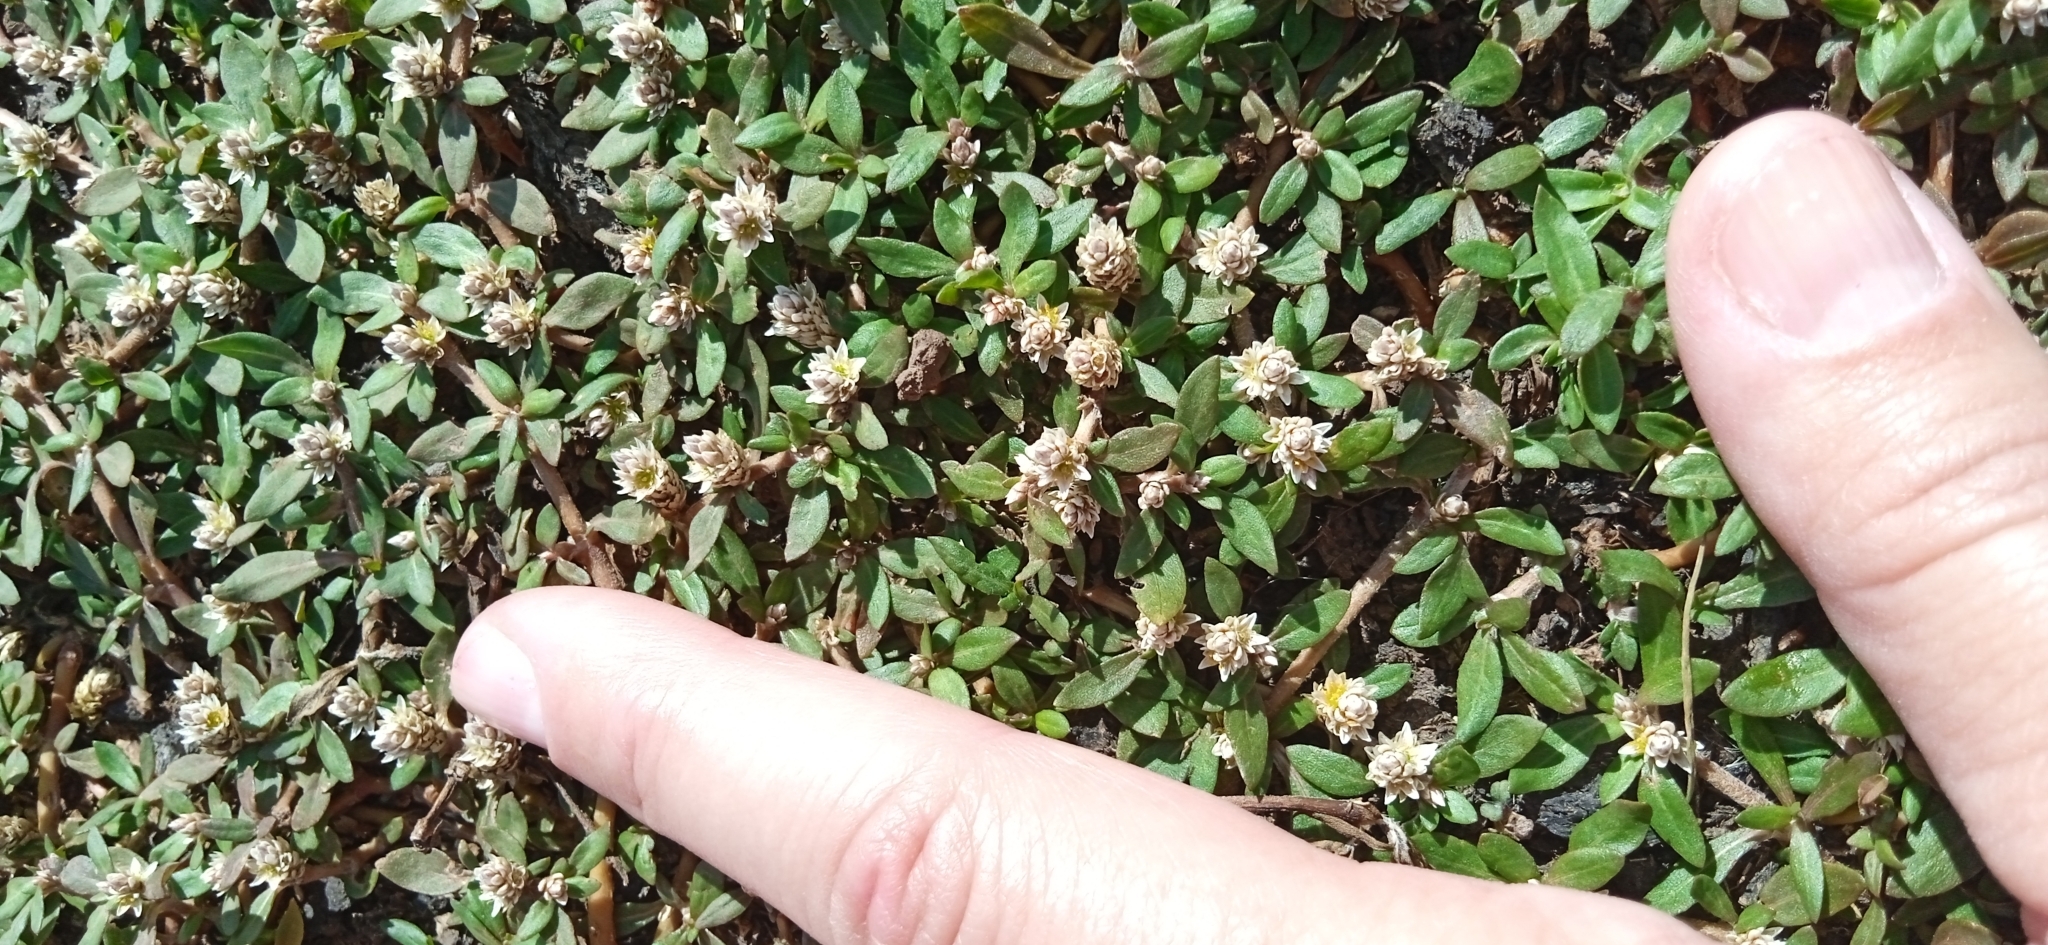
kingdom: Plantae
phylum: Tracheophyta
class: Magnoliopsida
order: Caryophyllales
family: Amaranthaceae
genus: Alternanthera
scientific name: Alternanthera paronychioides
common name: Smooth joyweed
